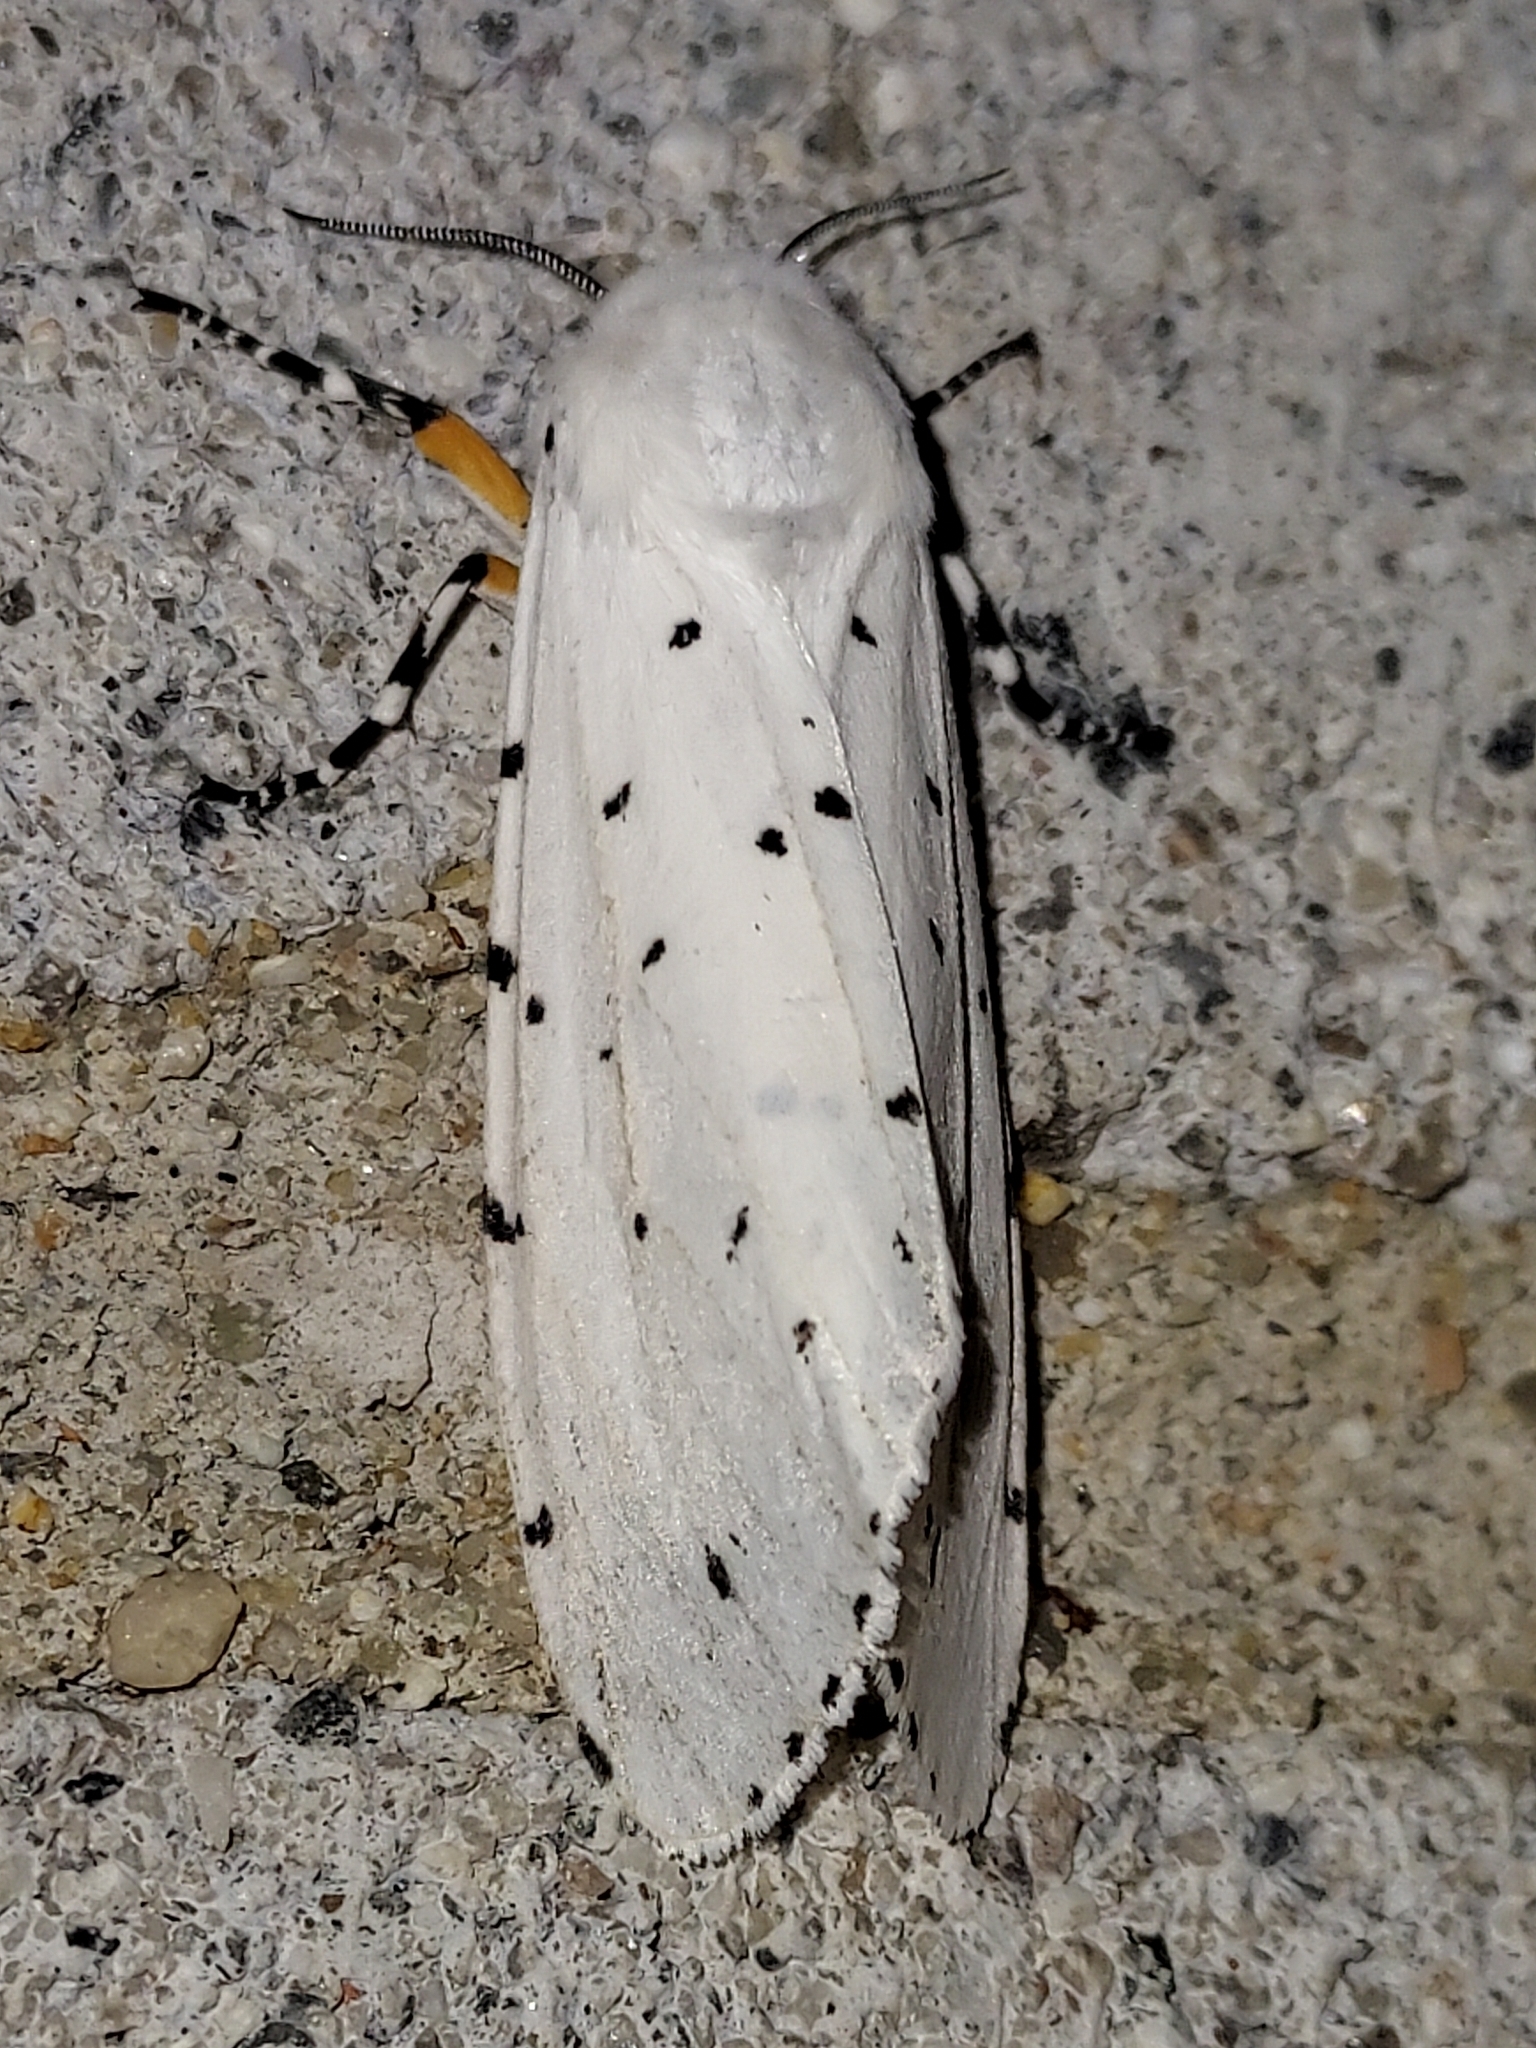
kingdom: Animalia
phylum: Arthropoda
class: Insecta
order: Lepidoptera
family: Erebidae
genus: Estigmene
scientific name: Estigmene acrea
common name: Salt marsh moth
